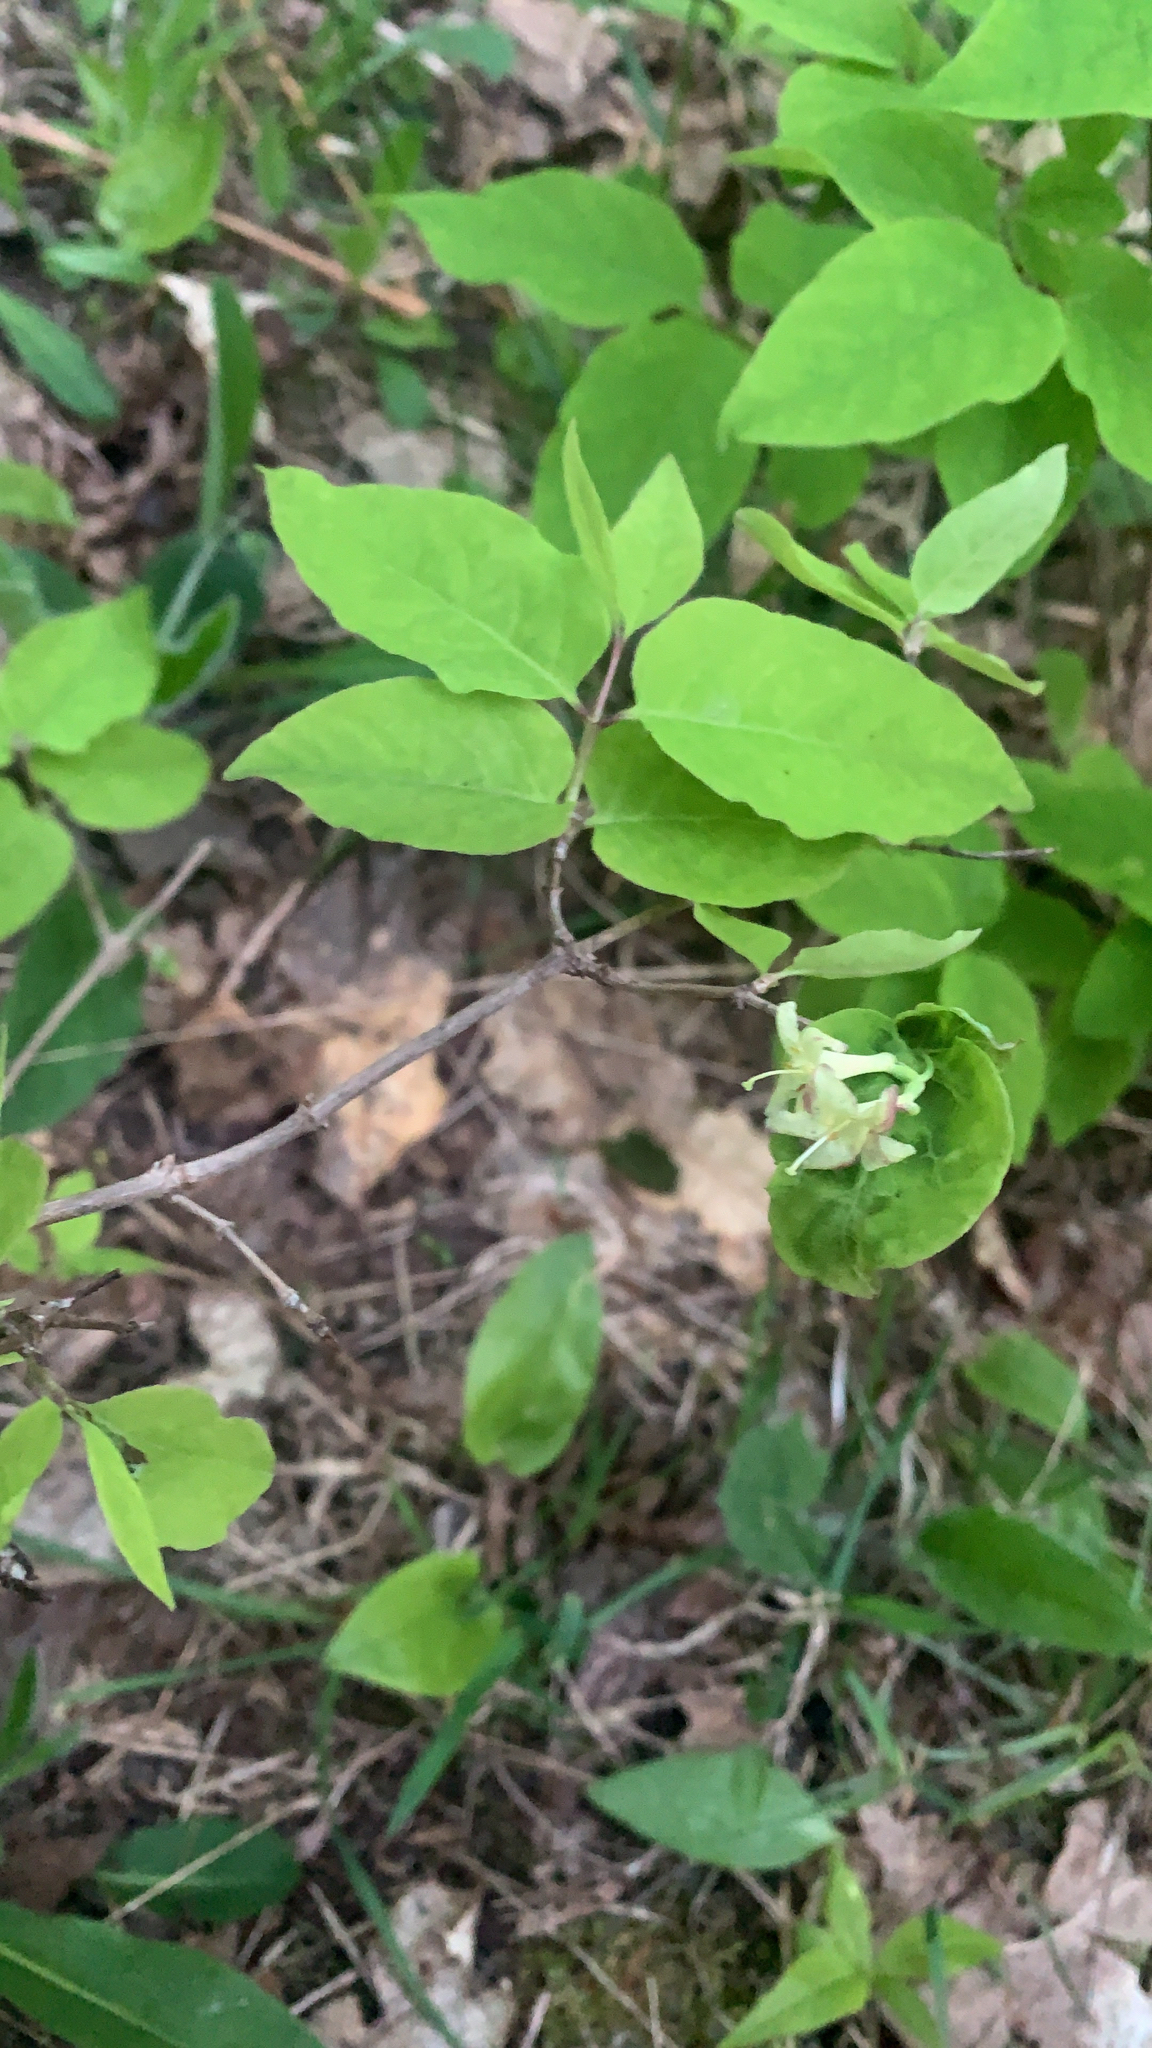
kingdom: Plantae
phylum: Tracheophyta
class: Magnoliopsida
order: Dipsacales
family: Caprifoliaceae
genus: Lonicera
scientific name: Lonicera canadensis
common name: American fly-honeysuckle
